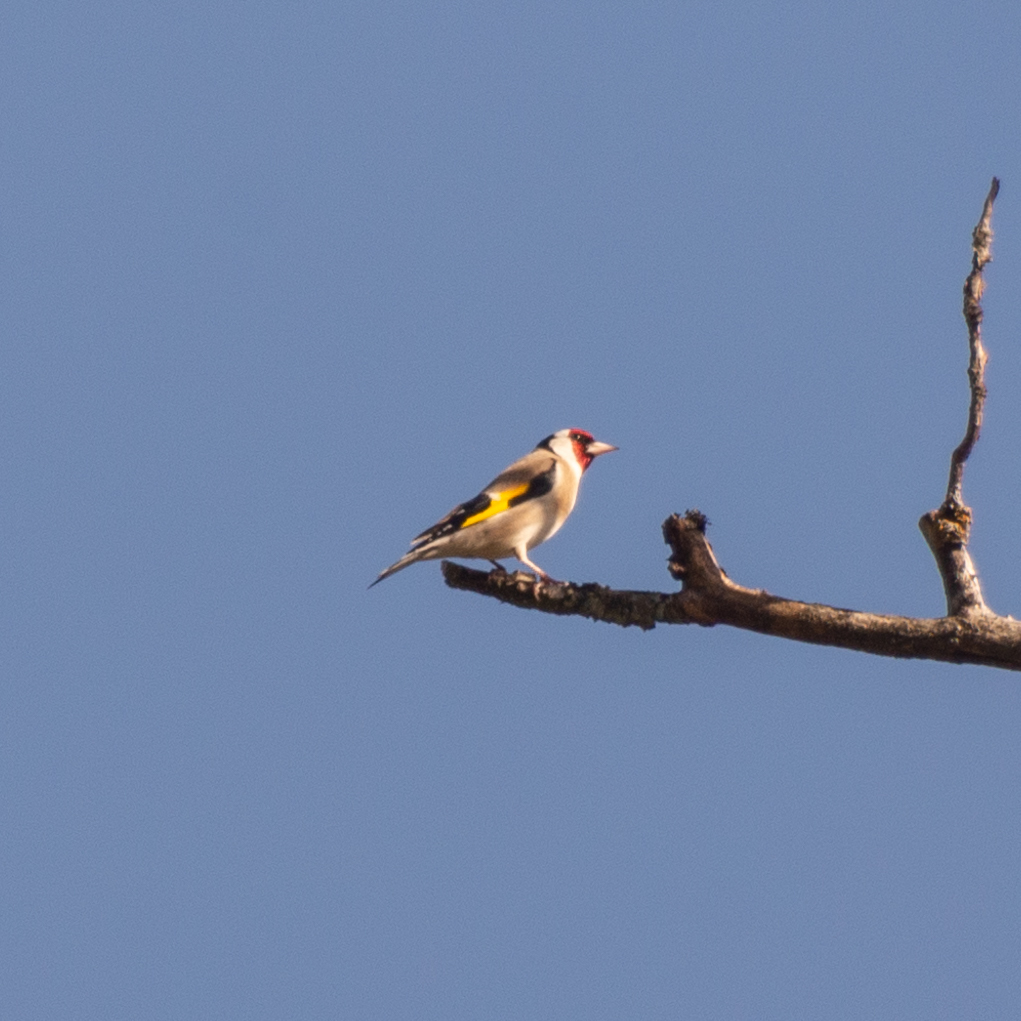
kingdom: Animalia
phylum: Chordata
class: Aves
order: Passeriformes
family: Fringillidae
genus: Carduelis
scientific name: Carduelis carduelis
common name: European goldfinch
